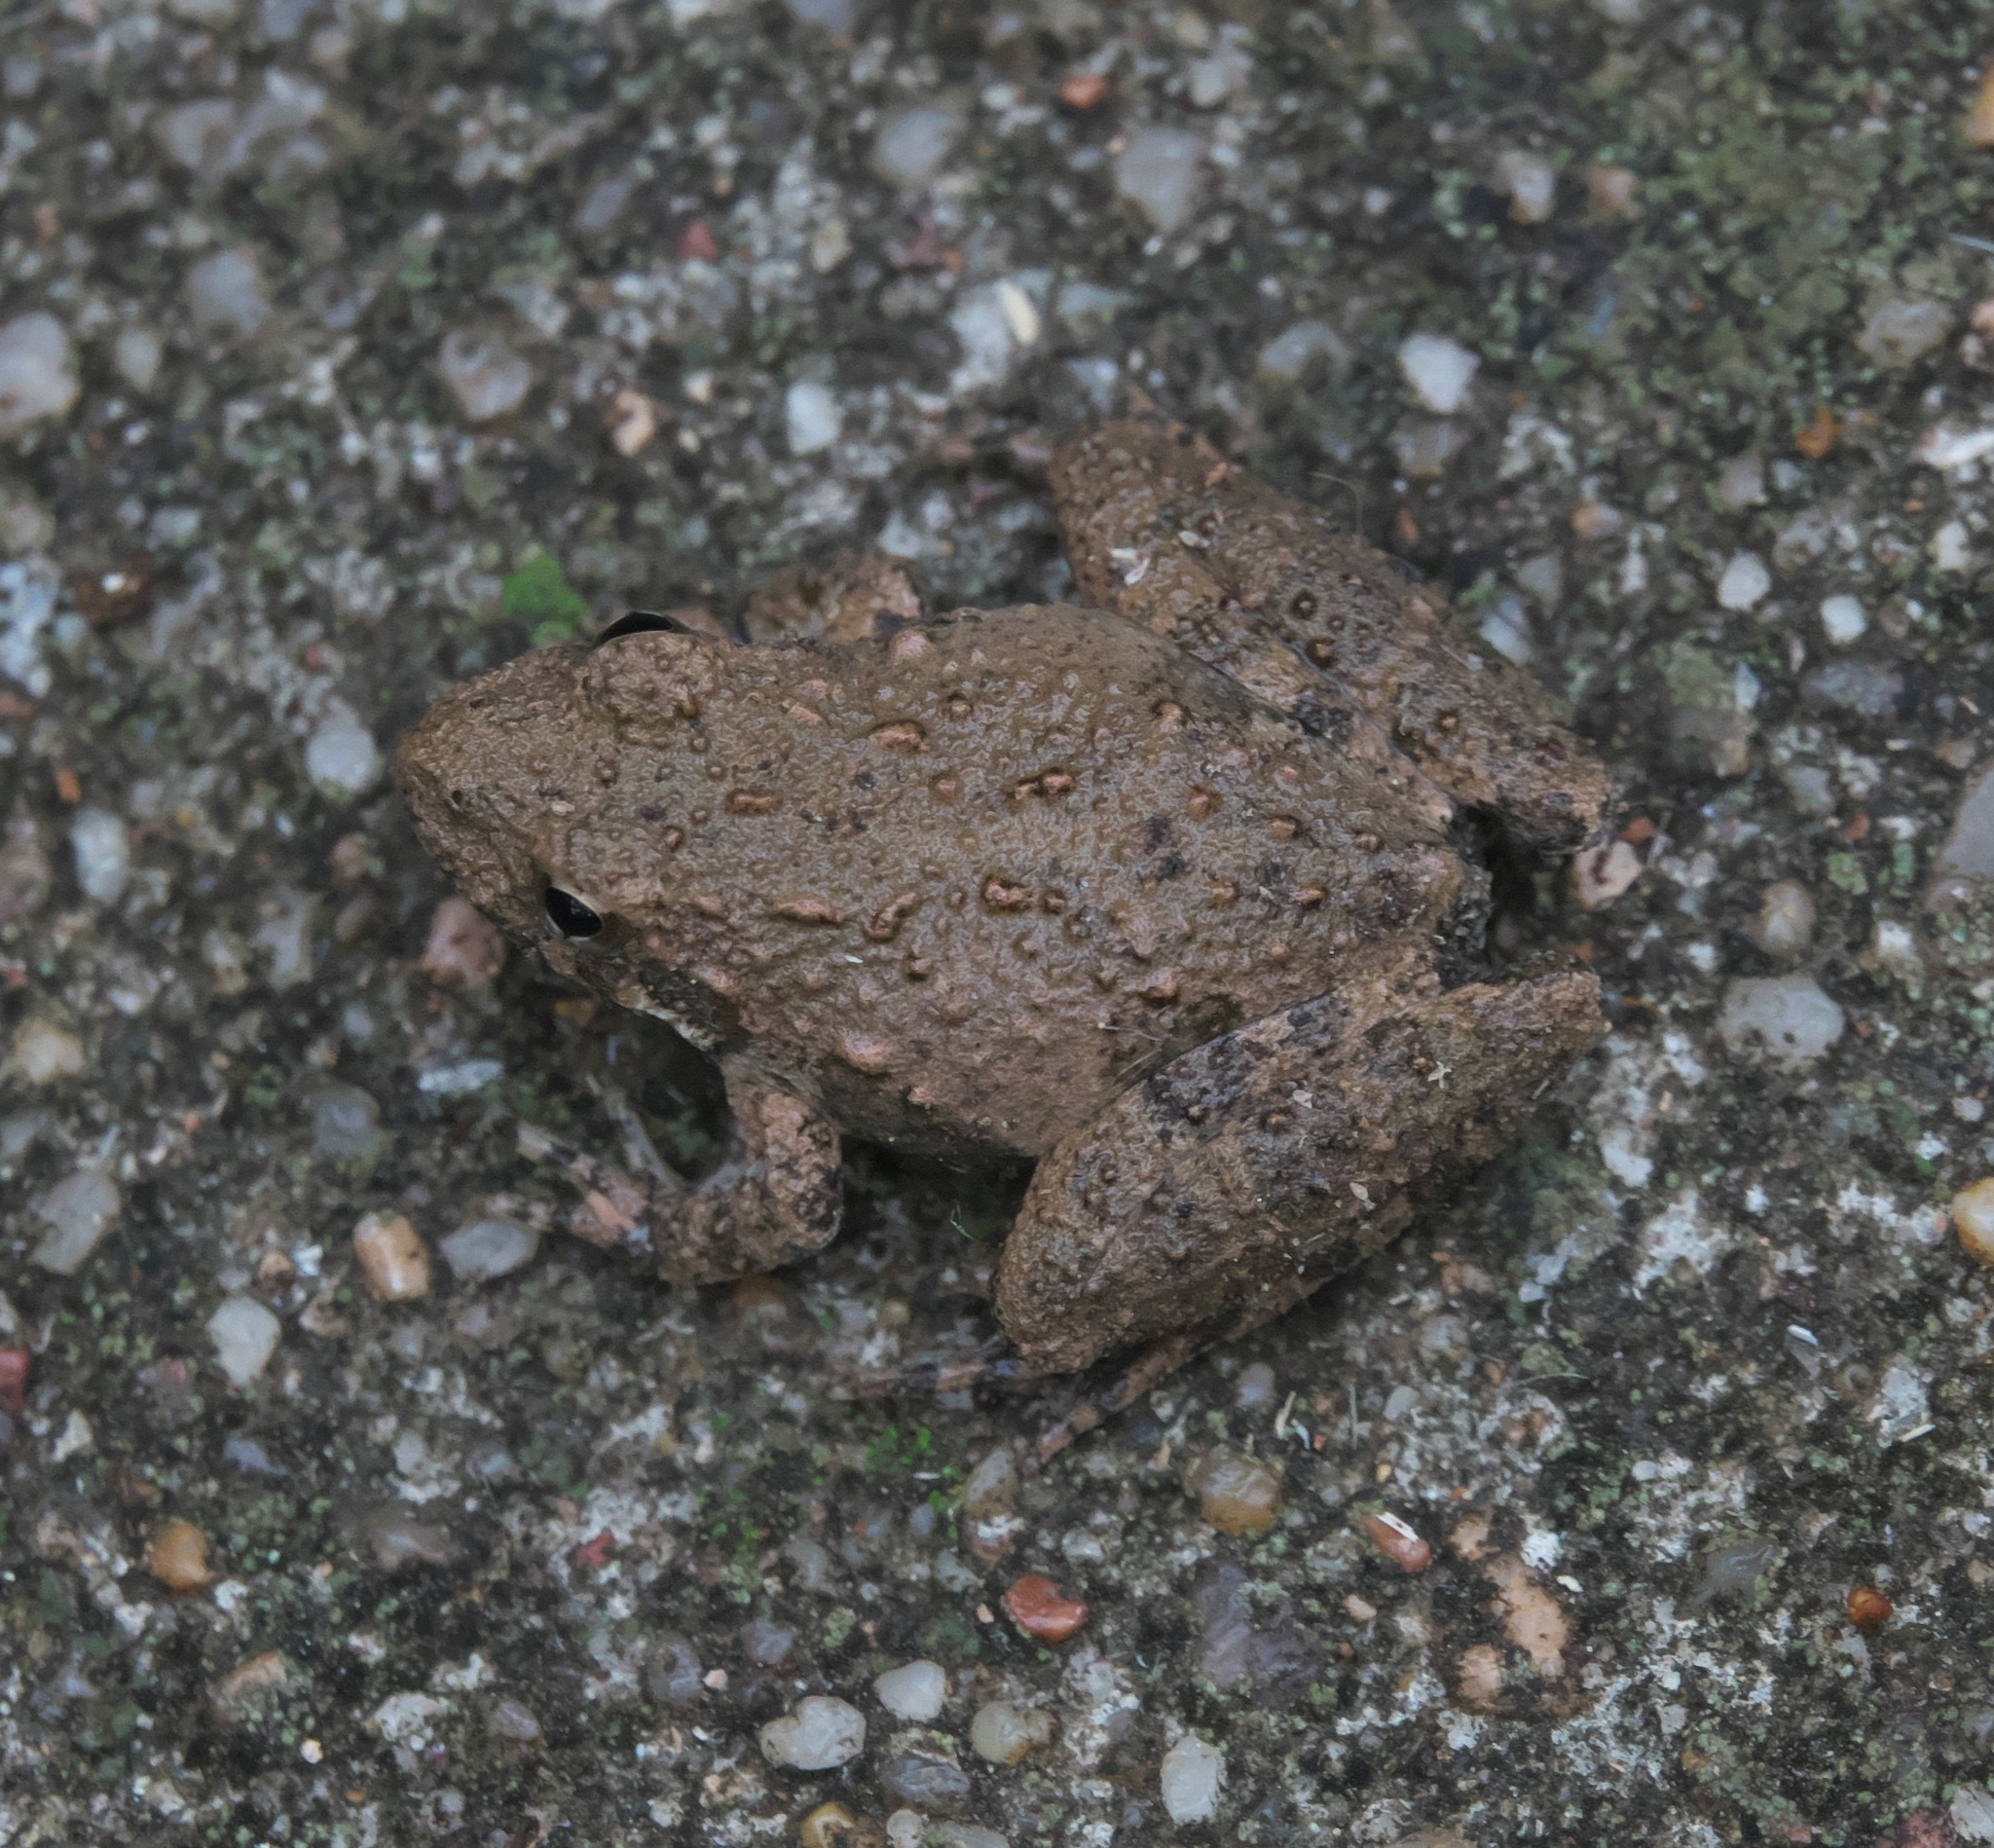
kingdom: Animalia
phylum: Chordata
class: Amphibia
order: Anura
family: Hylidae
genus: Acris
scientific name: Acris blanchardi
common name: Blanchard's cricket frog
